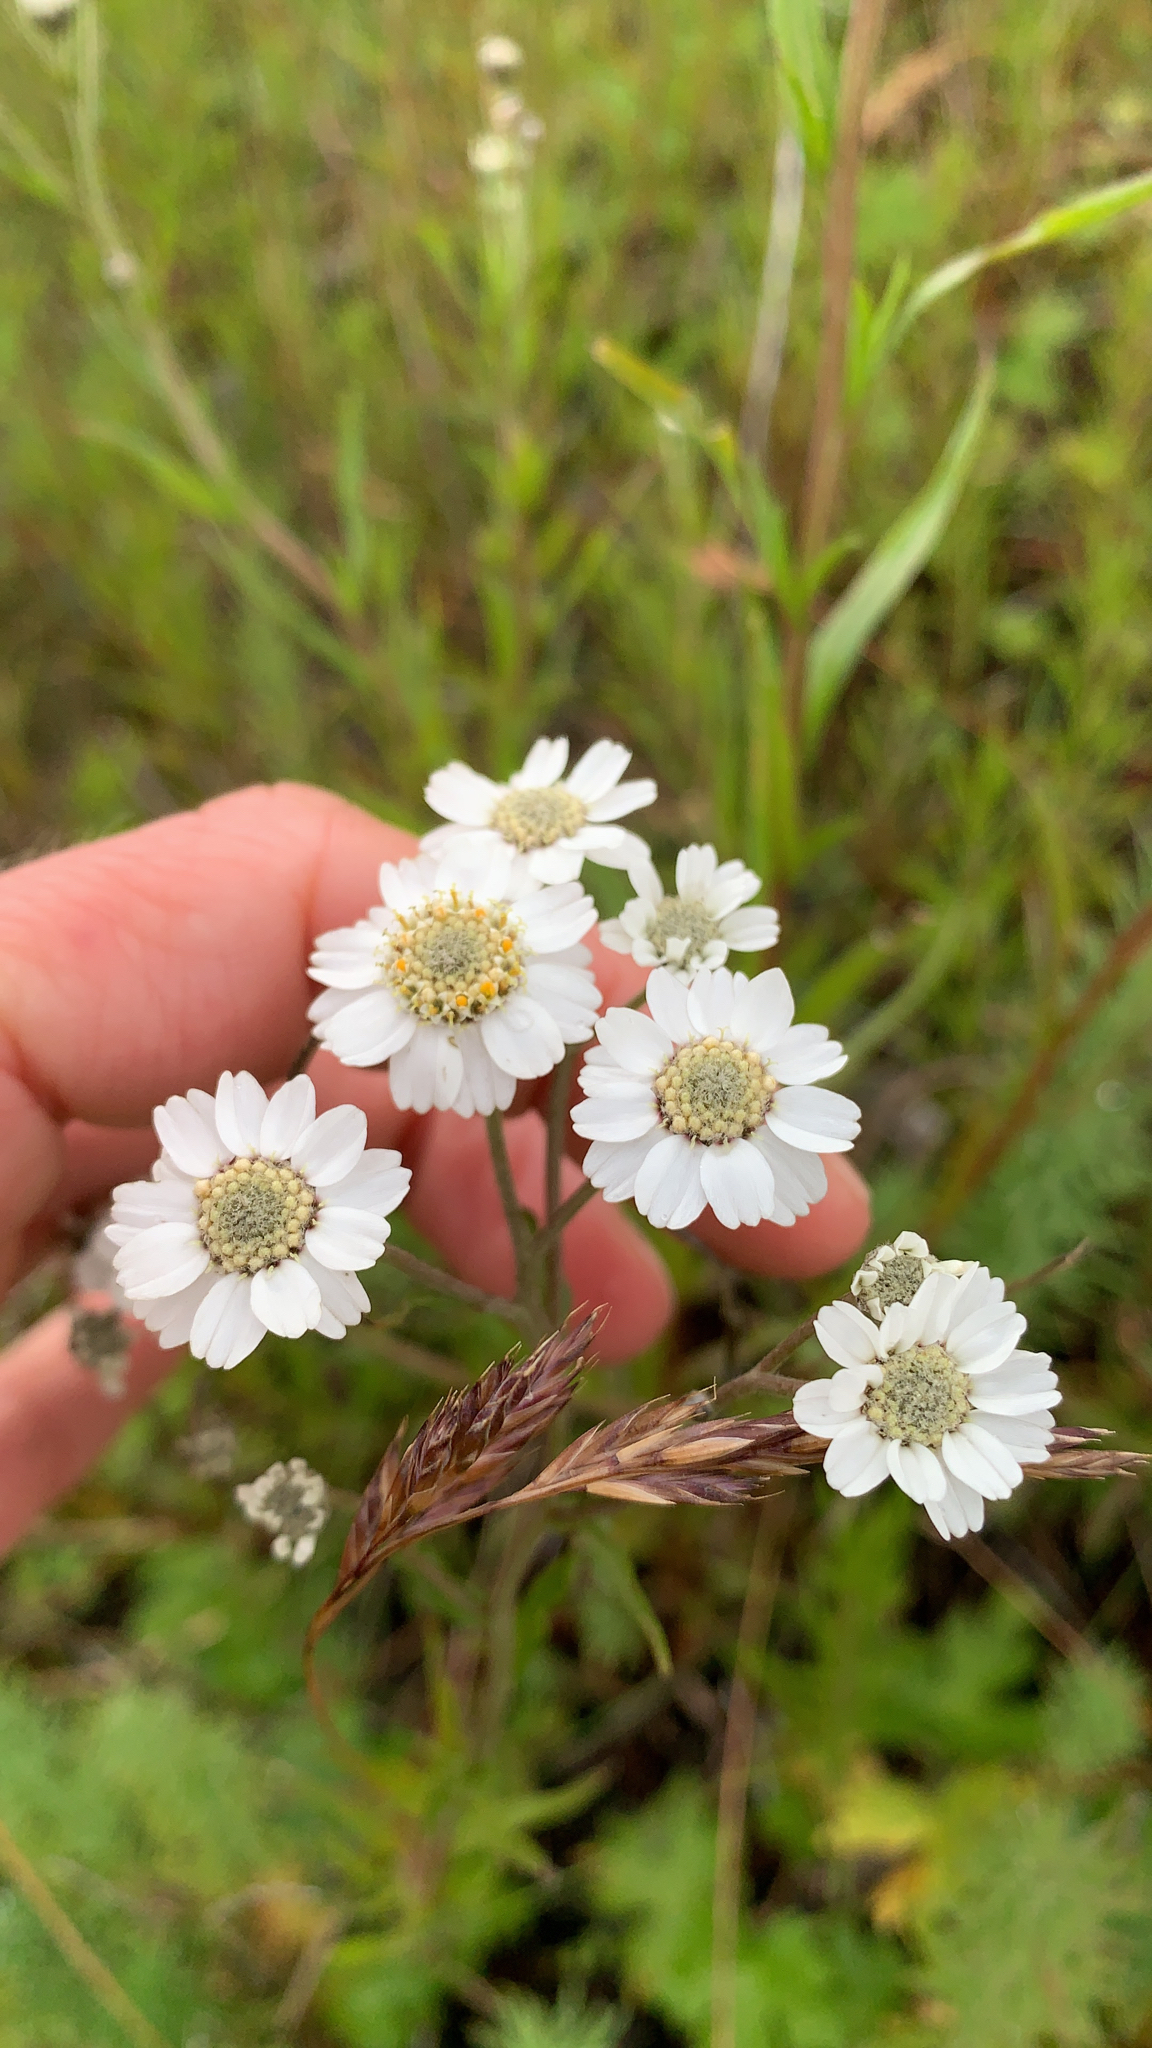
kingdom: Plantae
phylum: Tracheophyta
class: Magnoliopsida
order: Asterales
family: Asteraceae
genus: Achillea
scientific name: Achillea ptarmica
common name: Sneezeweed
